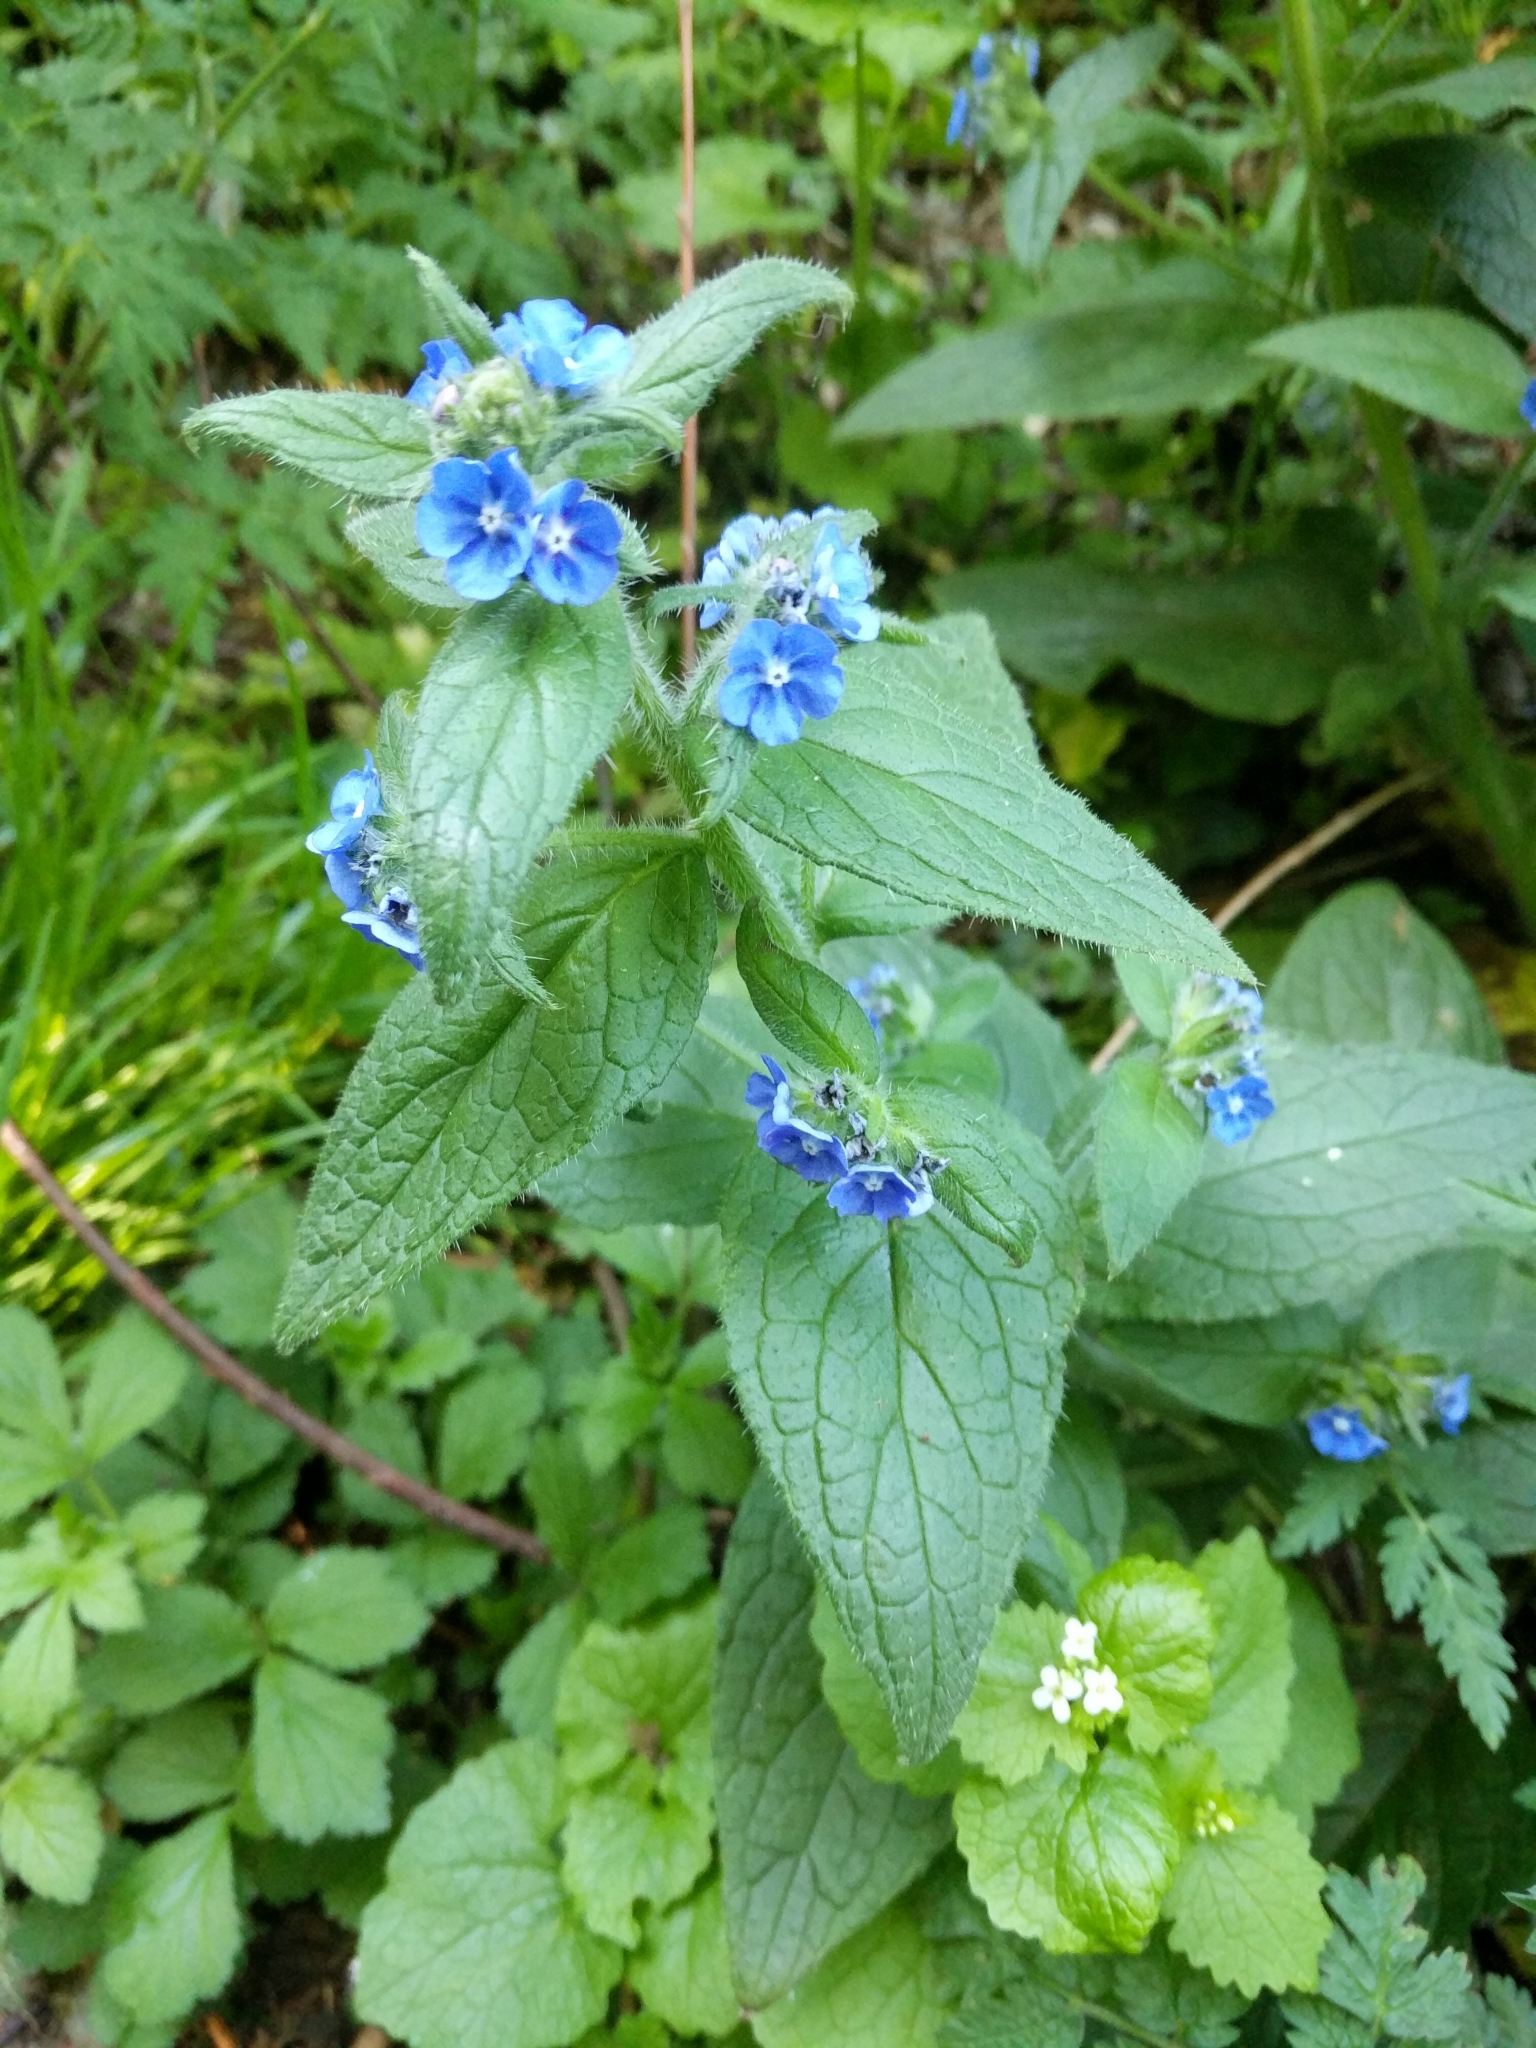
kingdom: Plantae
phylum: Tracheophyta
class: Magnoliopsida
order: Boraginales
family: Boraginaceae
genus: Pentaglottis
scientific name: Pentaglottis sempervirens
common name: Green alkanet
